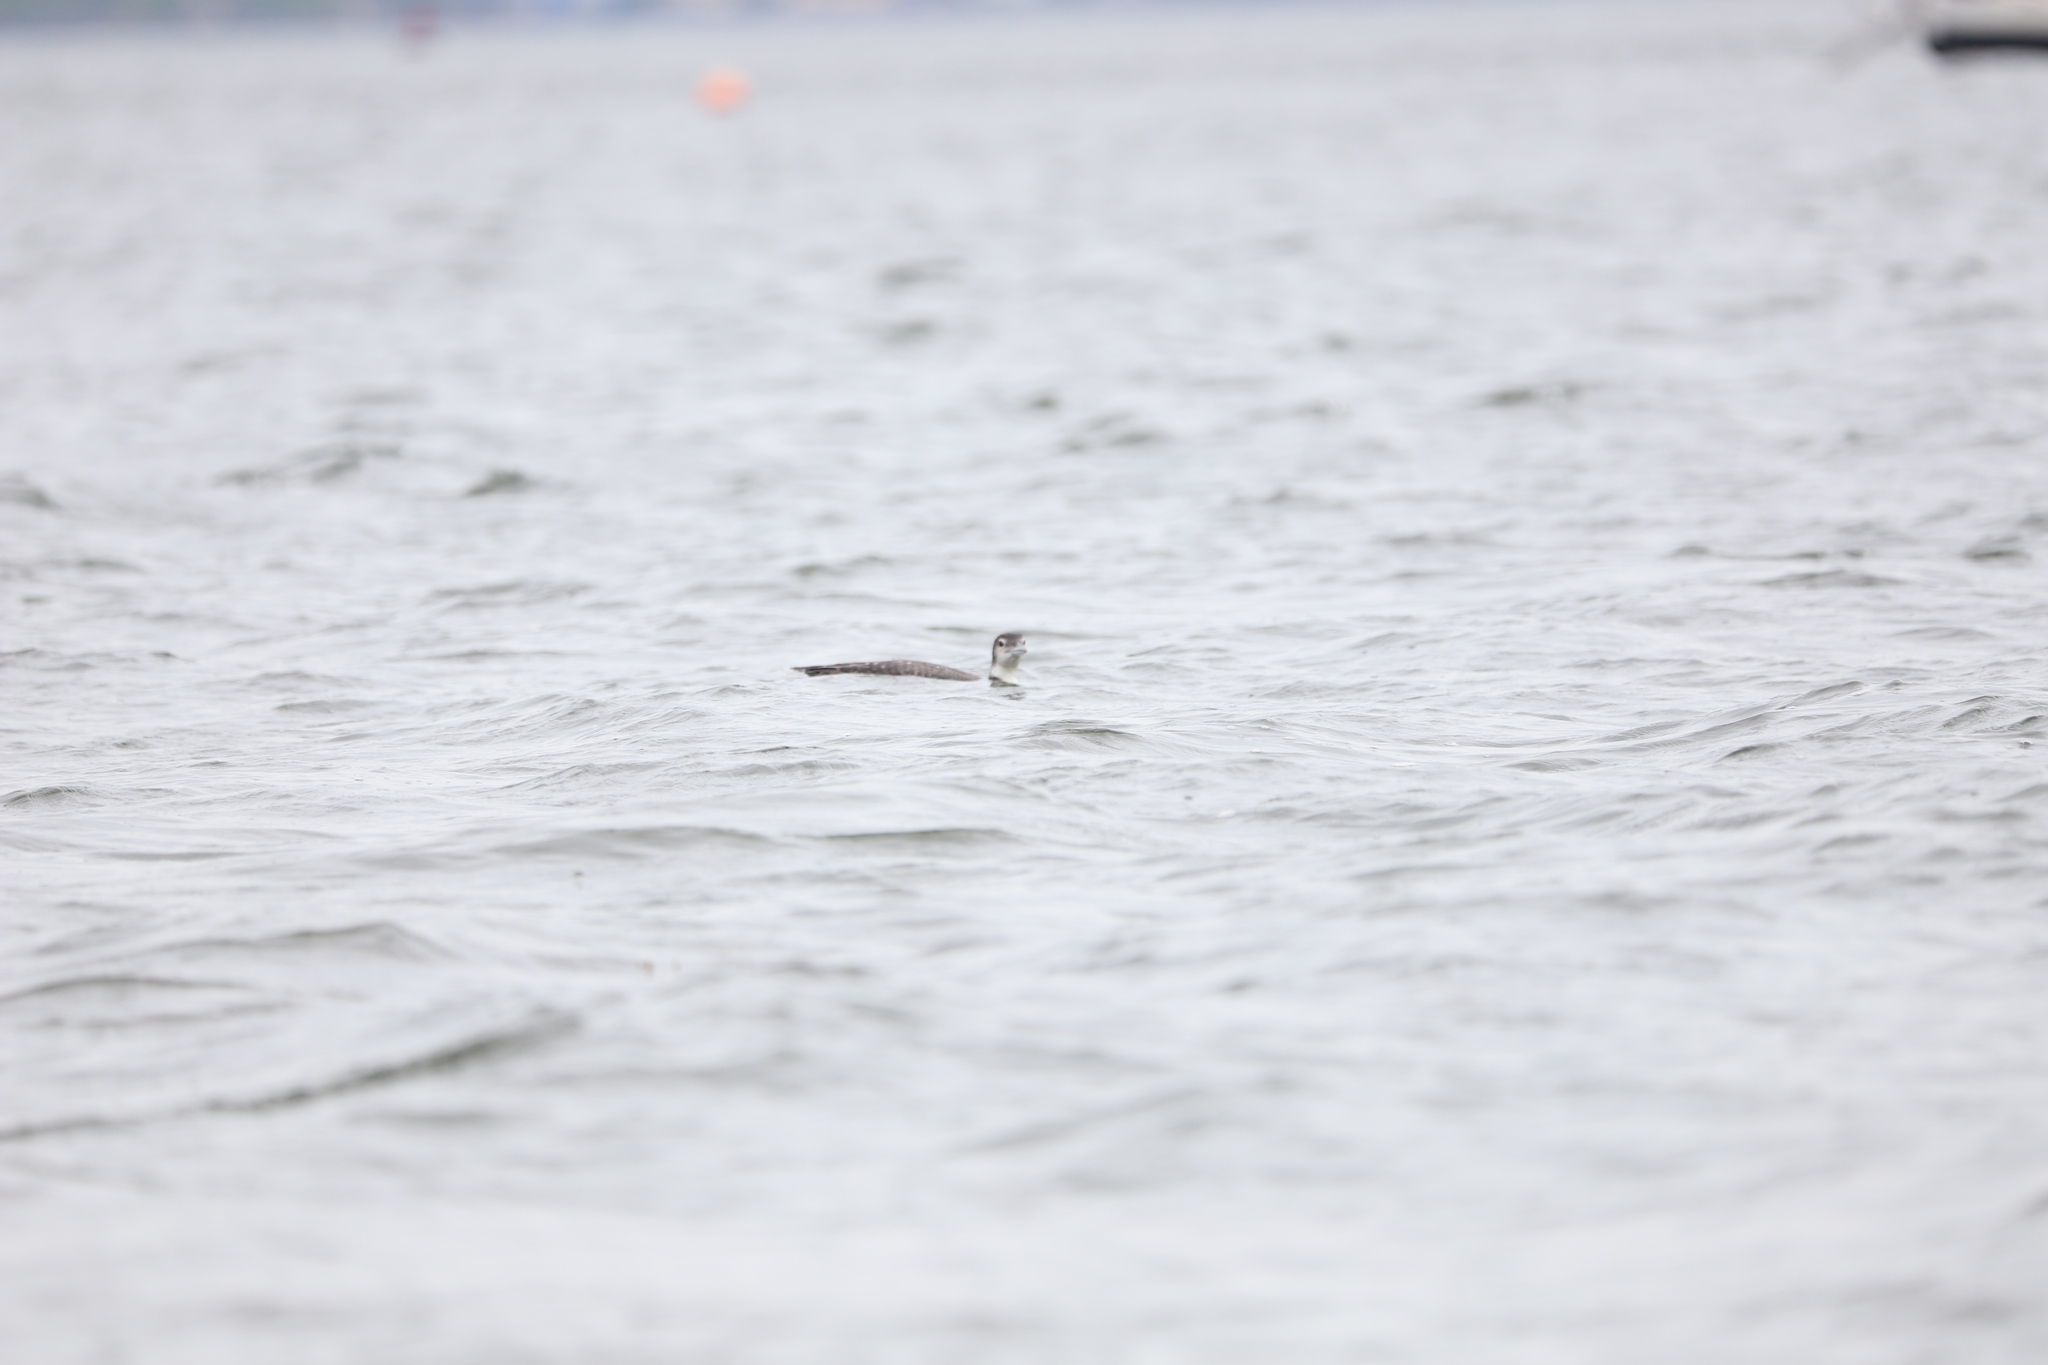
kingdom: Animalia
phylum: Chordata
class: Aves
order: Gaviiformes
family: Gaviidae
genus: Gavia
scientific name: Gavia immer
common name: Common loon
